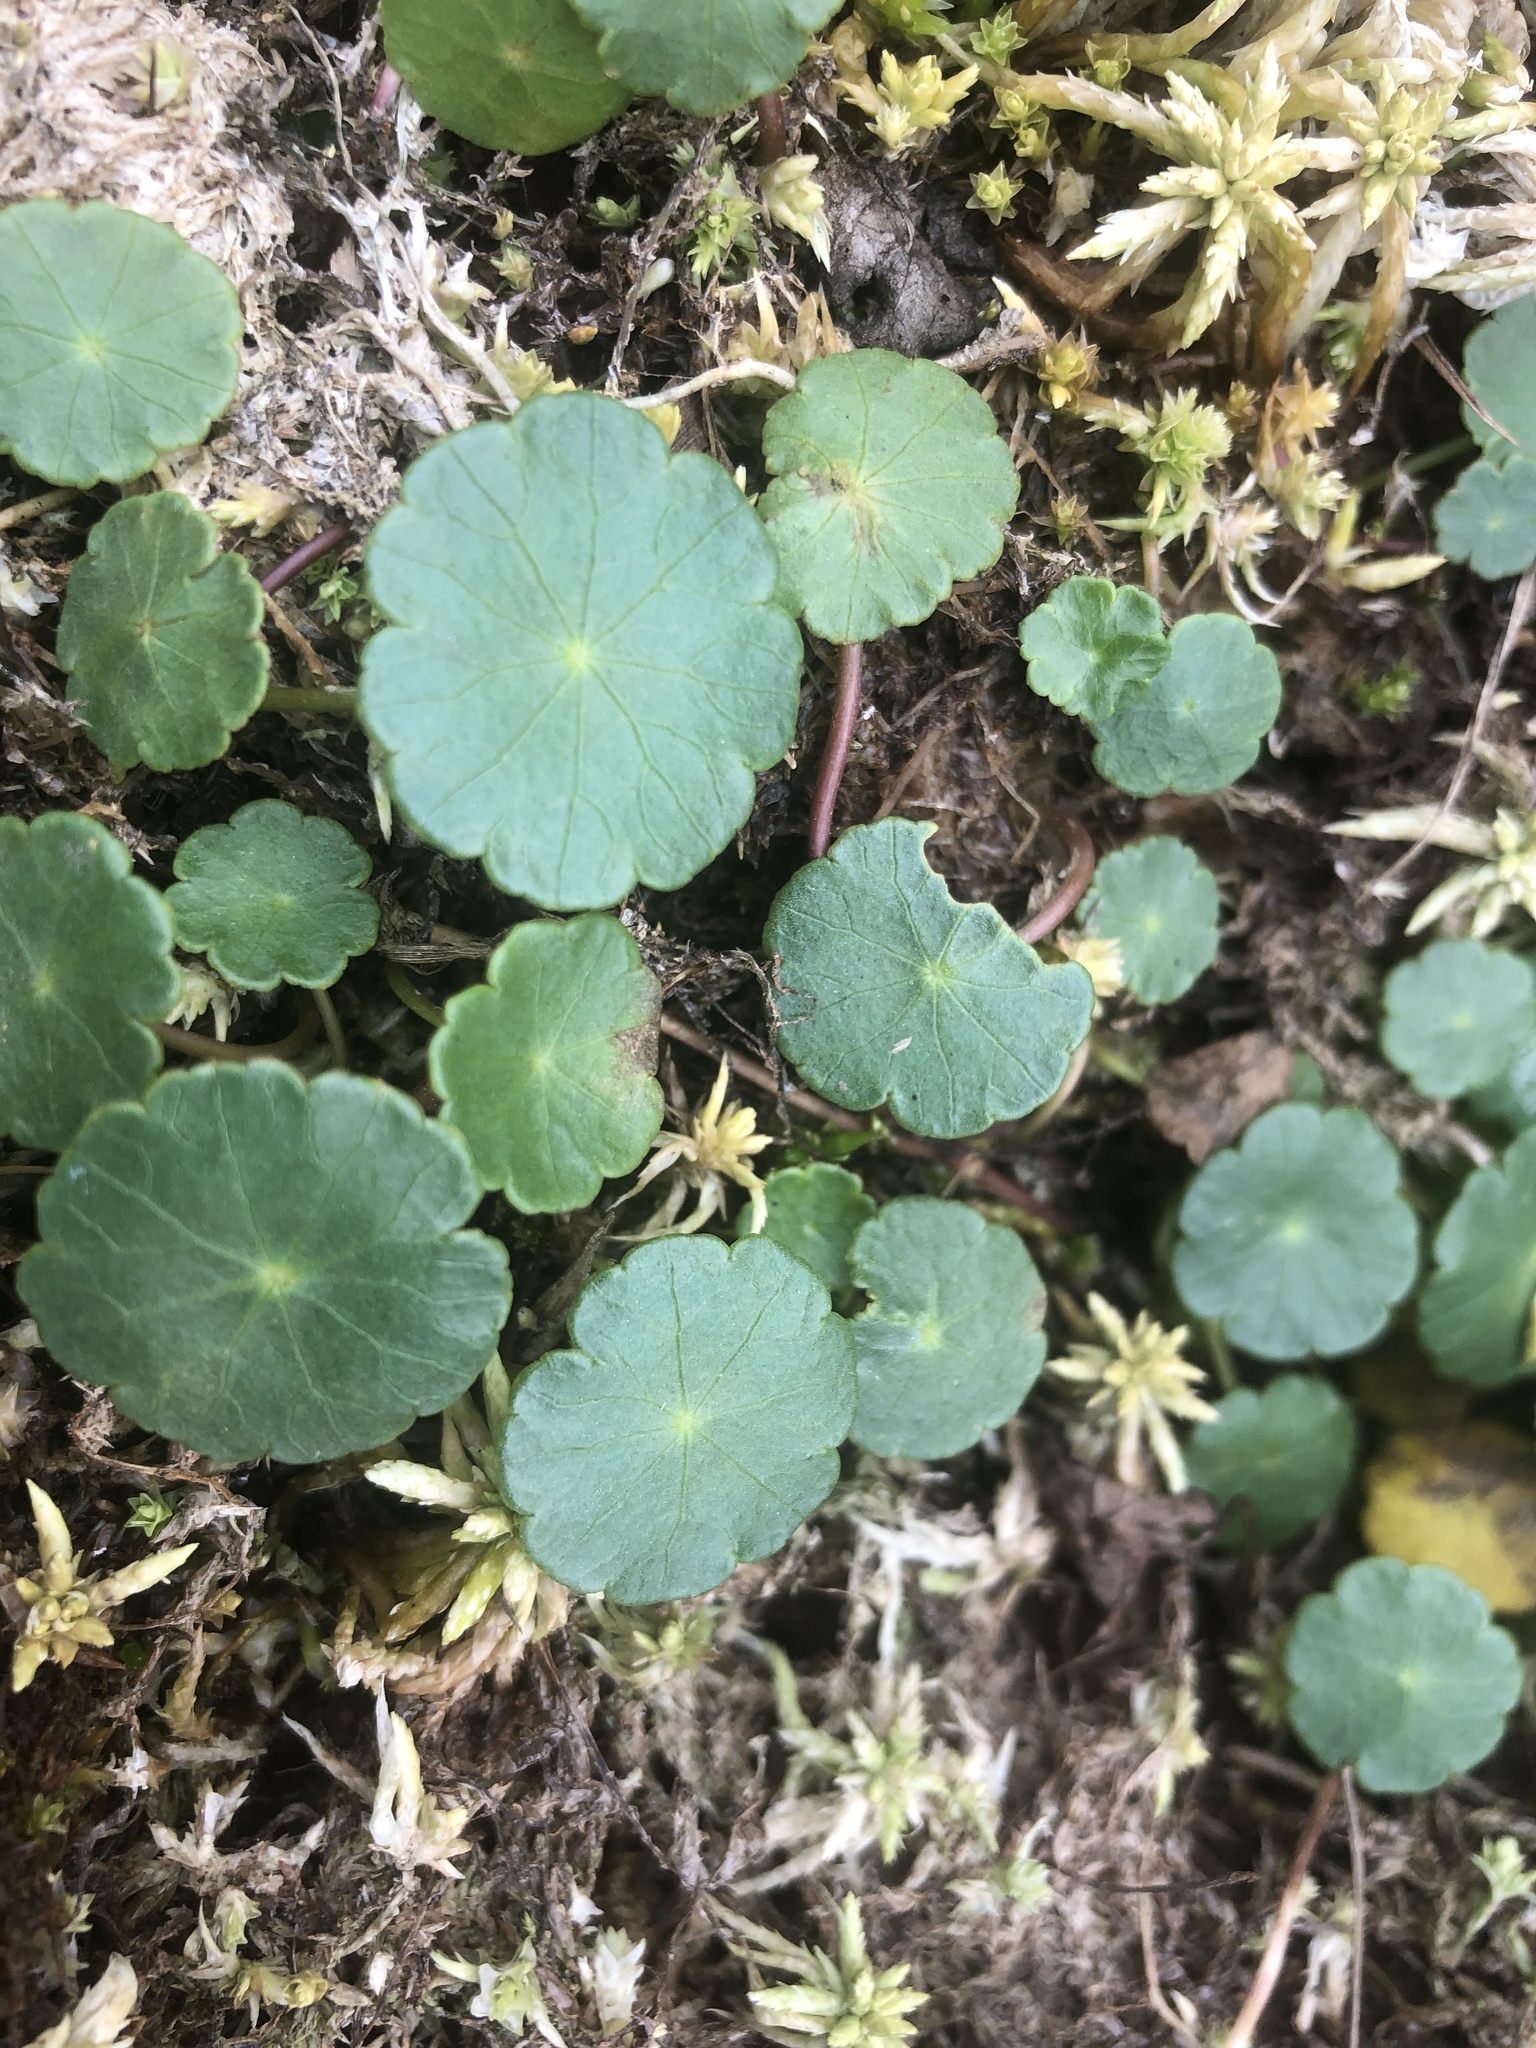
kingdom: Plantae
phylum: Tracheophyta
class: Magnoliopsida
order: Apiales
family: Araliaceae
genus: Hydrocotyle
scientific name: Hydrocotyle vulgaris
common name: Marsh pennywort
